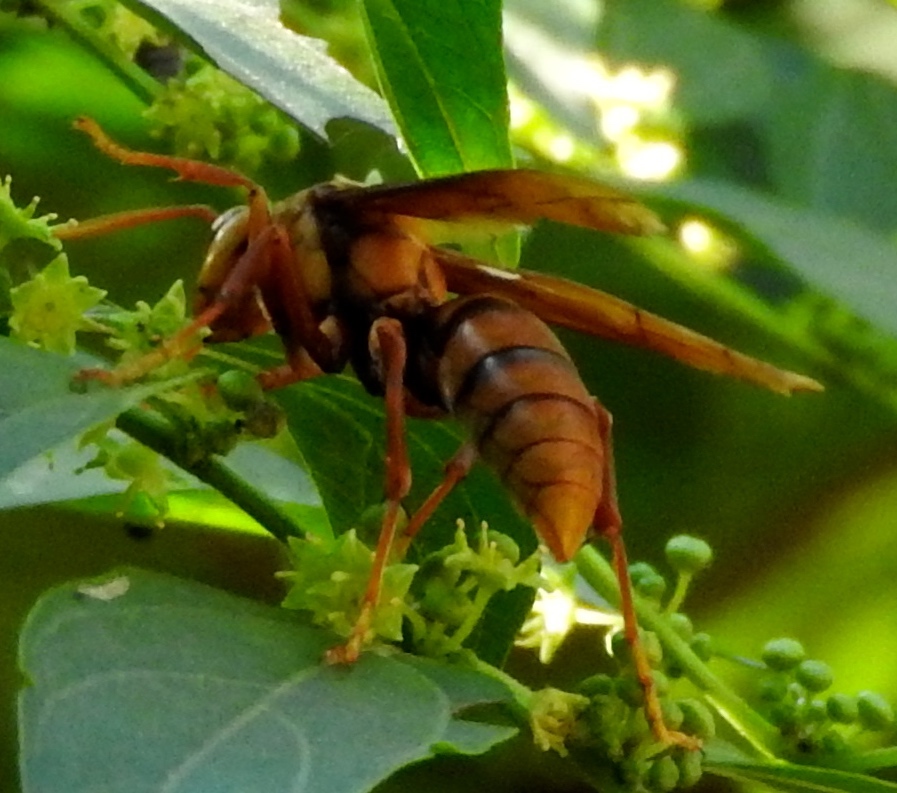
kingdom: Animalia
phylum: Arthropoda
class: Insecta
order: Hymenoptera
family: Eumenidae
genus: Polistes
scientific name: Polistes carnifex
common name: Paper wasp
